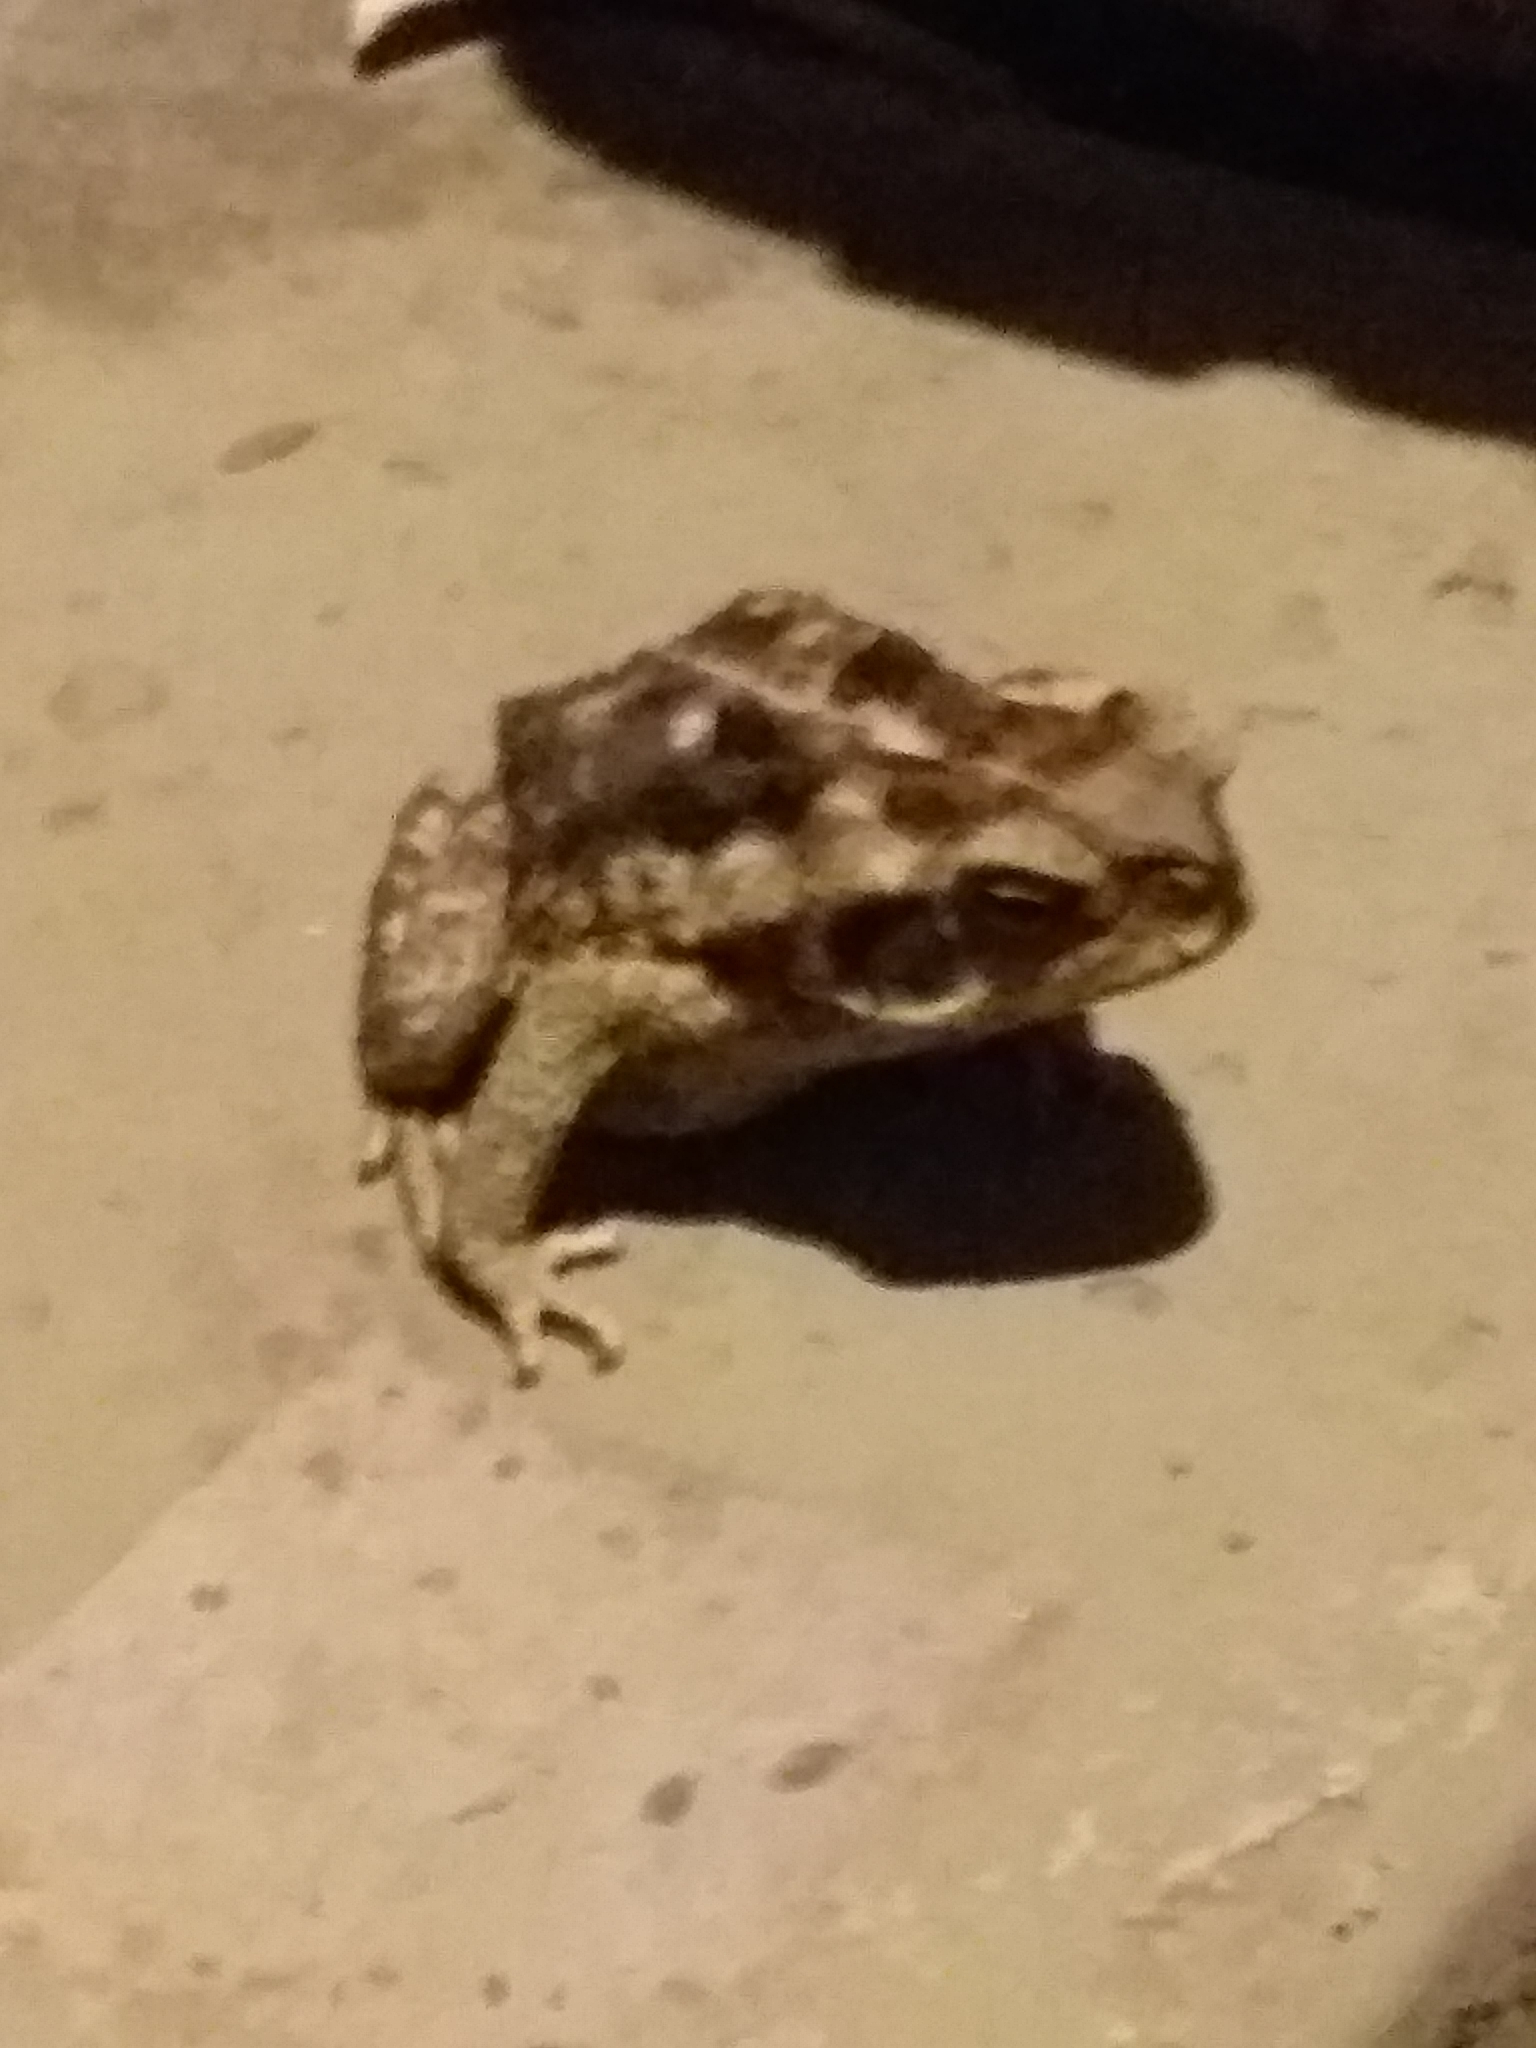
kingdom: Animalia
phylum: Chordata
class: Amphibia
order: Anura
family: Bufonidae
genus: Rhinella
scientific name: Rhinella diptycha
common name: Cope's toad
